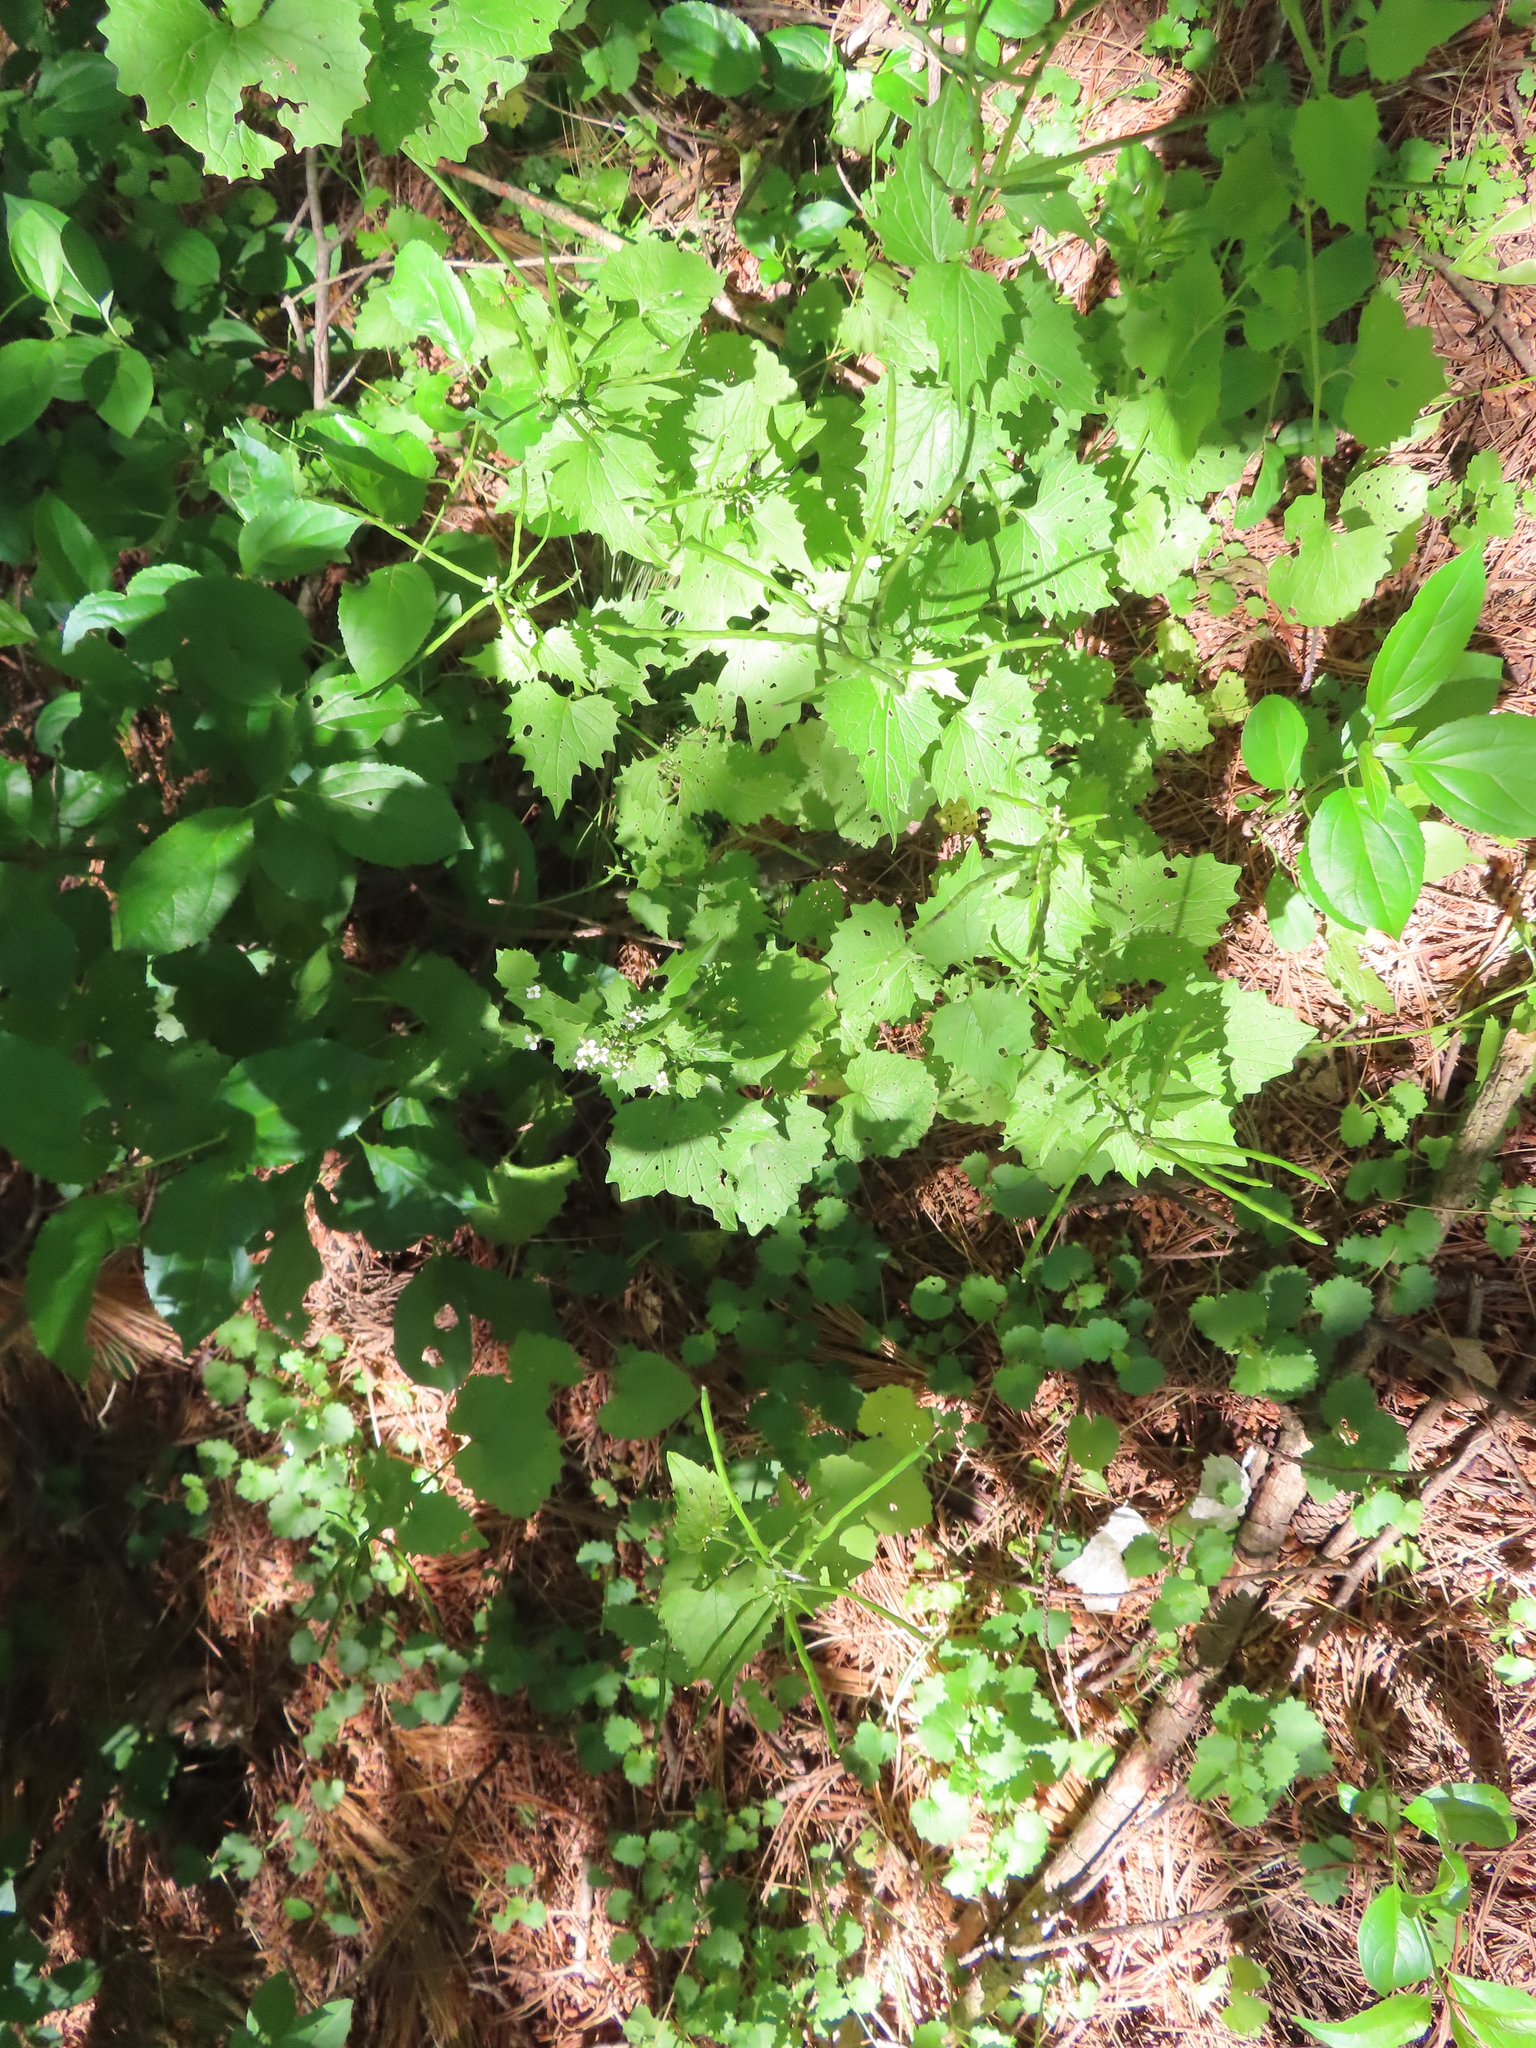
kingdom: Plantae
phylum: Tracheophyta
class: Magnoliopsida
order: Brassicales
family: Brassicaceae
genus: Alliaria
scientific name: Alliaria petiolata
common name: Garlic mustard
